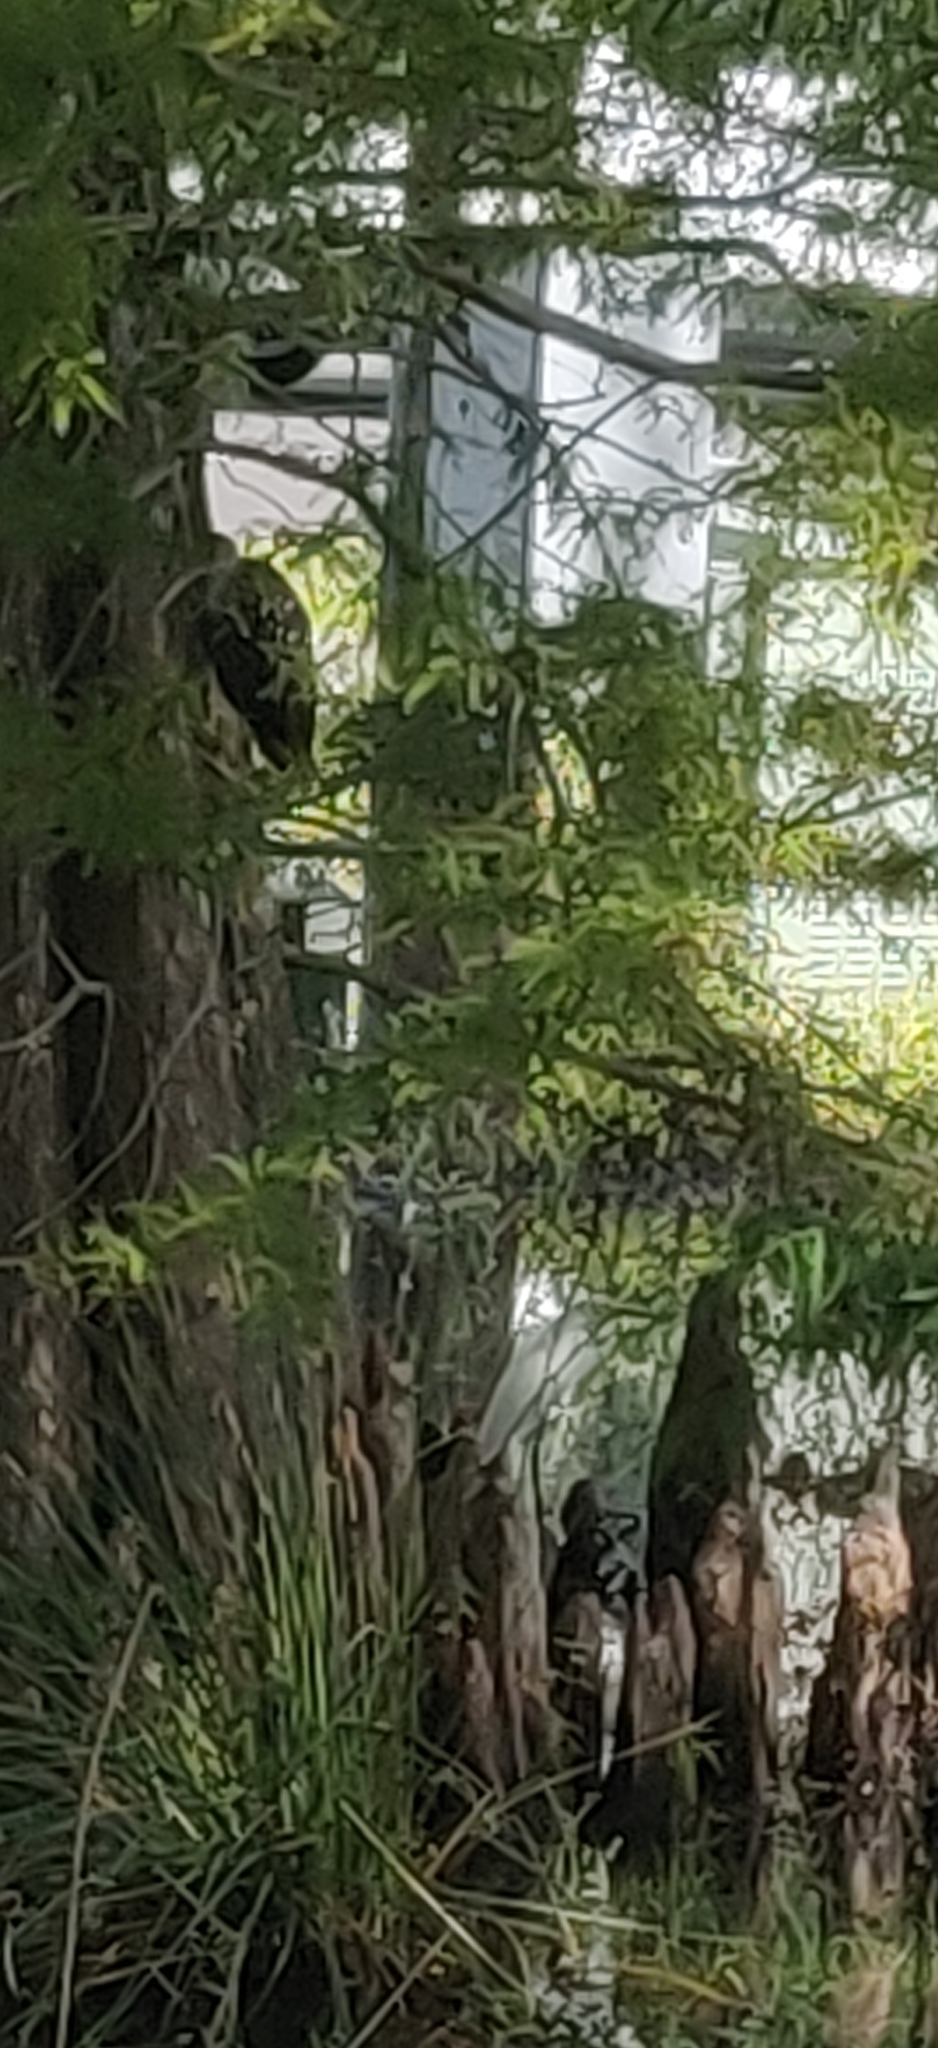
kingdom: Animalia
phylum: Chordata
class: Aves
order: Gruiformes
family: Aramidae
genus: Aramus
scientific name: Aramus guarauna
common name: Limpkin
